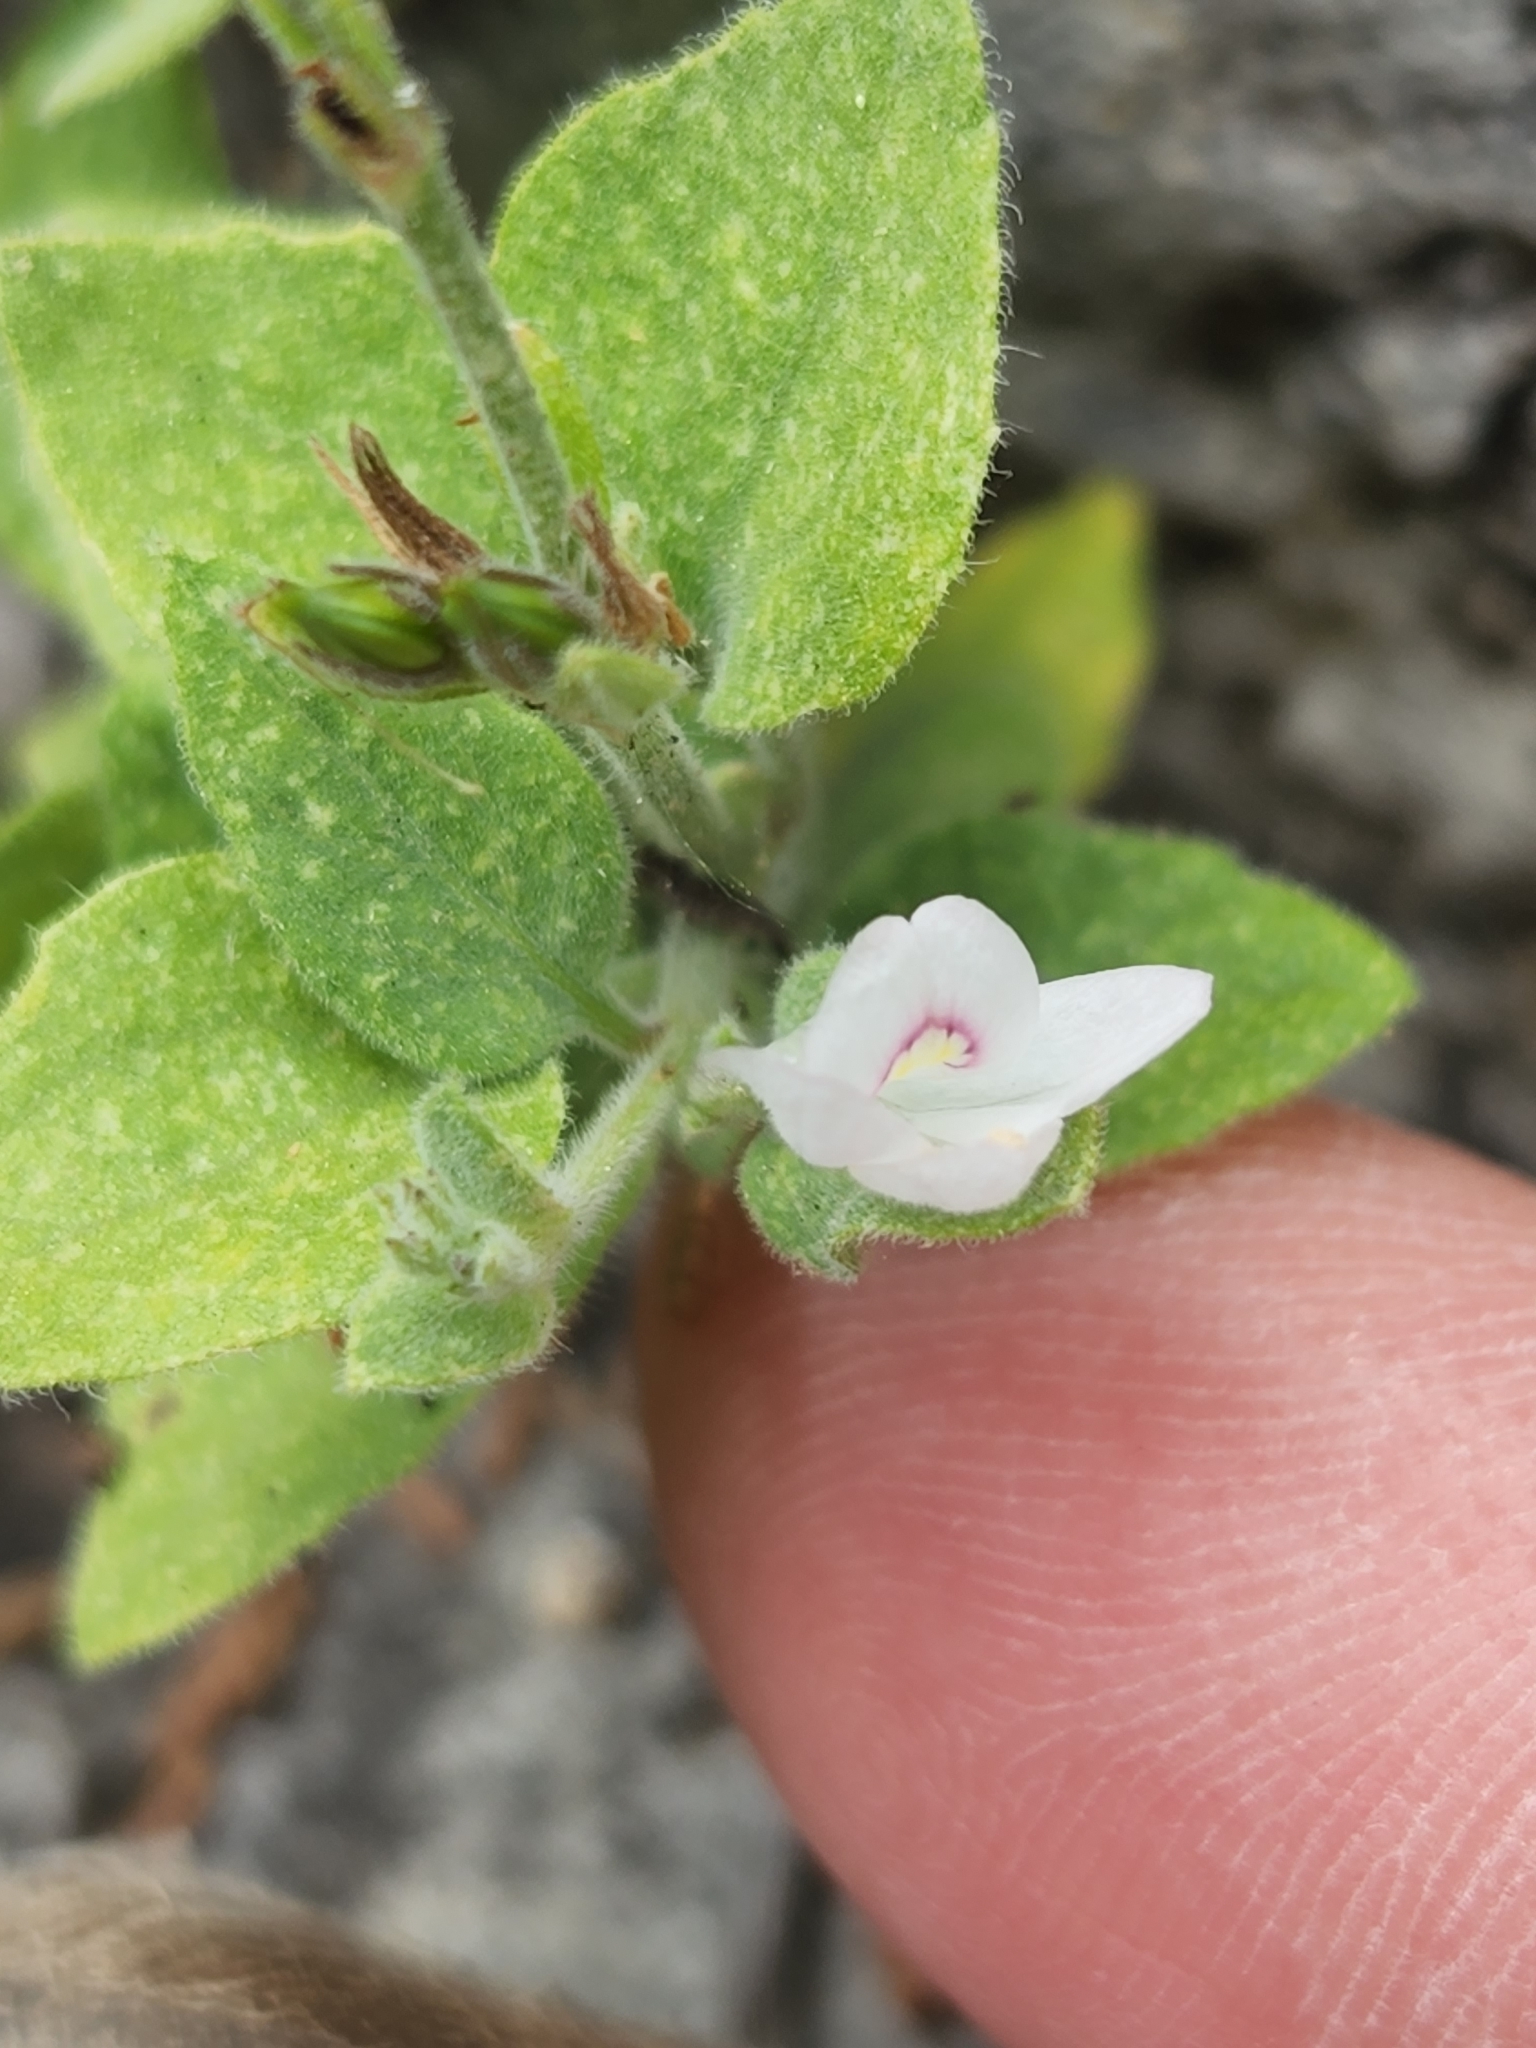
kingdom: Plantae
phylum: Tracheophyta
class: Magnoliopsida
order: Lamiales
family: Acanthaceae
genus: Carlowrightia
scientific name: Carlowrightia torreyana
